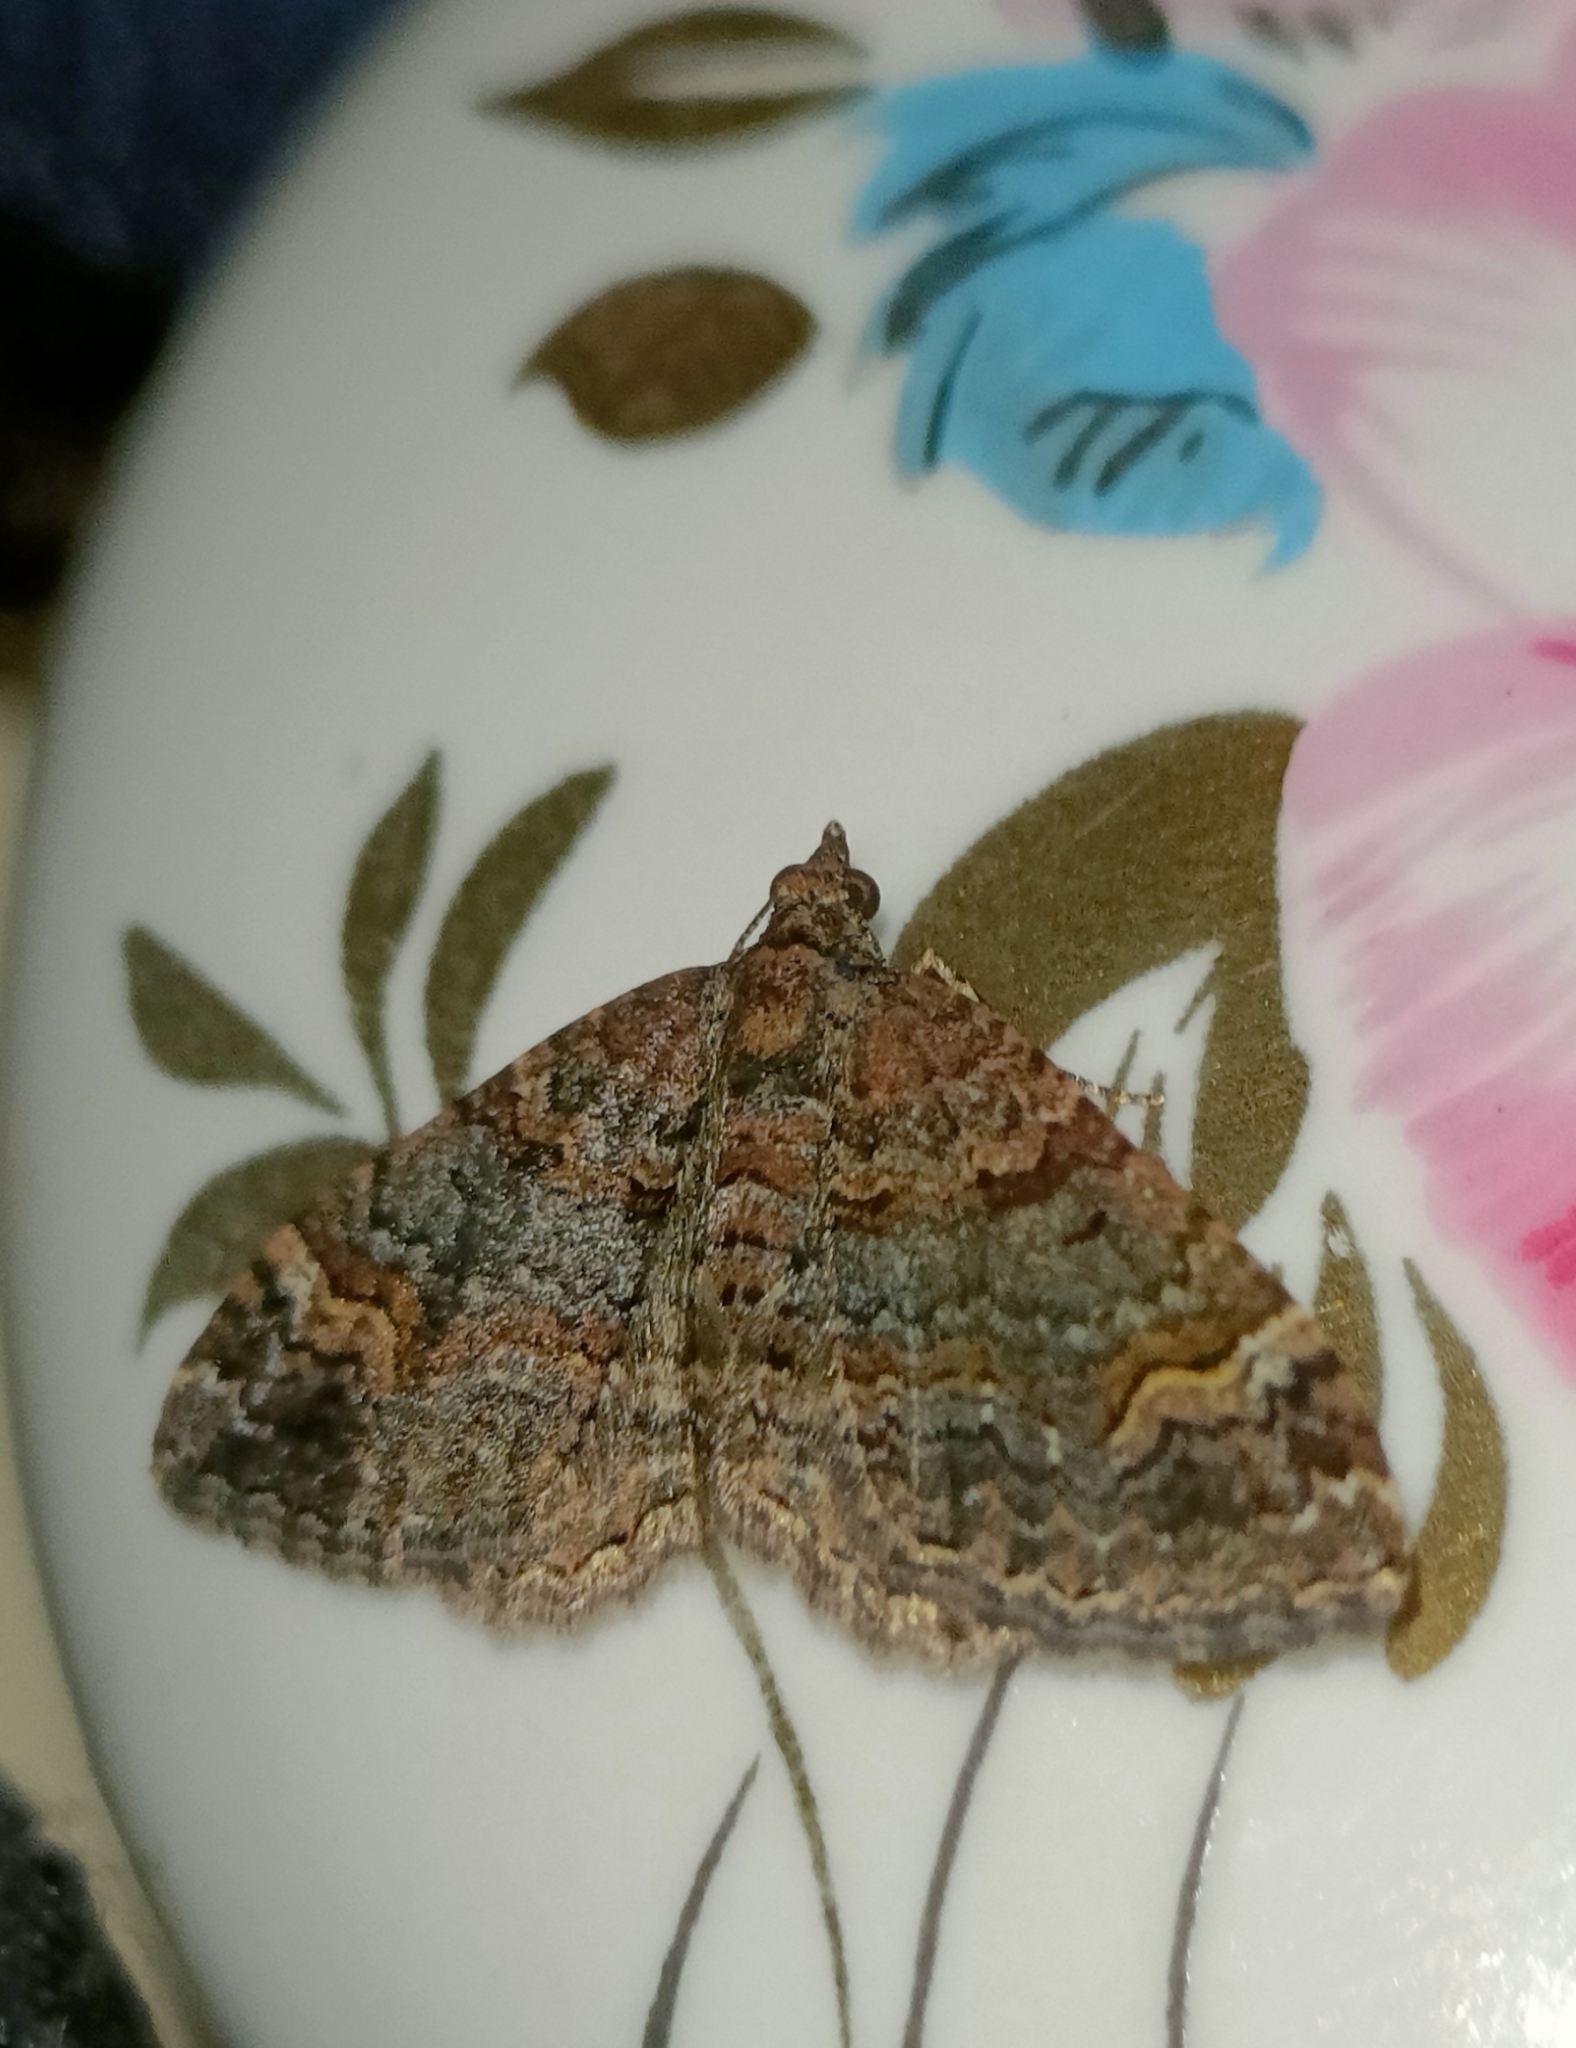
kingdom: Animalia
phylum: Arthropoda
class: Insecta
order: Lepidoptera
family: Geometridae
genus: Epyaxa
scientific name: Epyaxa sodaliata
